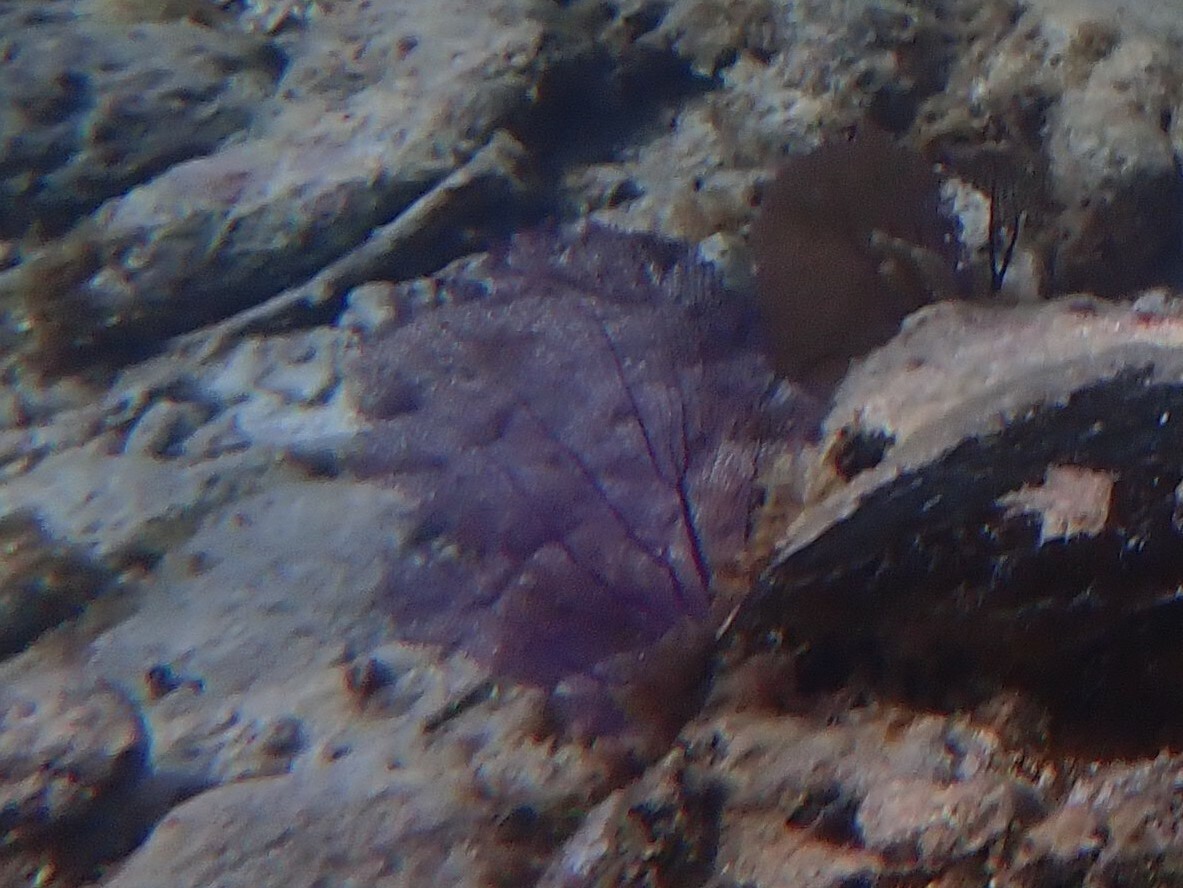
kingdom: Animalia
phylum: Cnidaria
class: Anthozoa
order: Malacalcyonacea
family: Gorgoniidae
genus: Gorgonia
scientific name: Gorgonia ventalina
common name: Common sea fan
